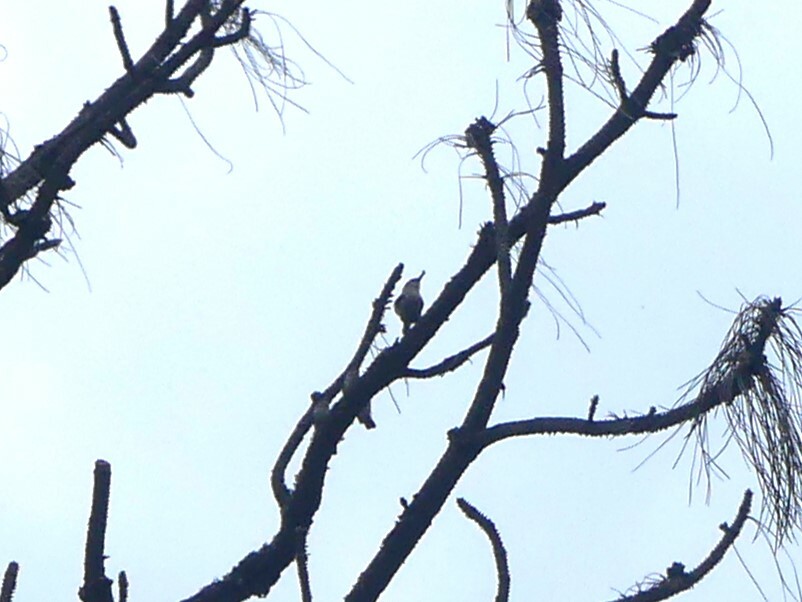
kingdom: Animalia
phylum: Chordata
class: Aves
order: Passeriformes
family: Sittidae
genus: Sitta
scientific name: Sitta pygmaea
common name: Pygmy nuthatch
